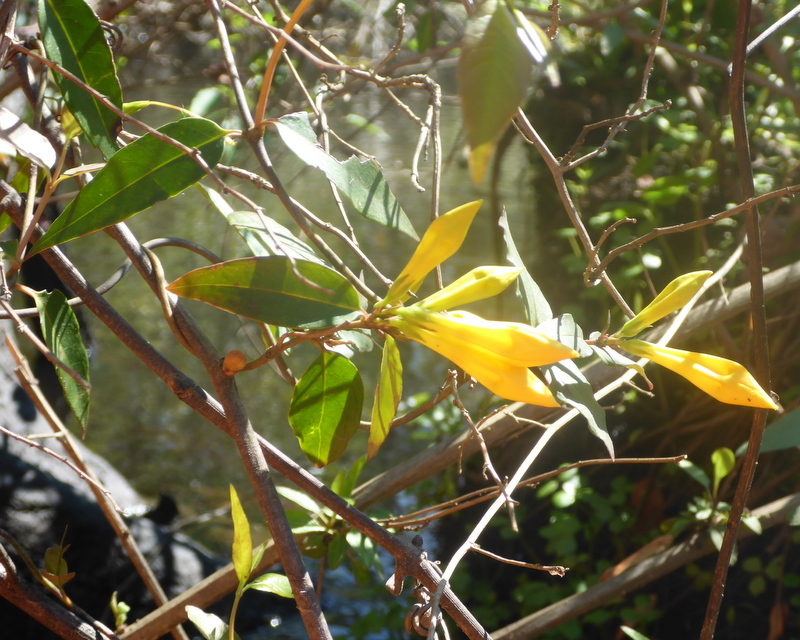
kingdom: Plantae
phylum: Tracheophyta
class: Magnoliopsida
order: Gentianales
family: Gelsemiaceae
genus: Gelsemium
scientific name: Gelsemium rankinii
